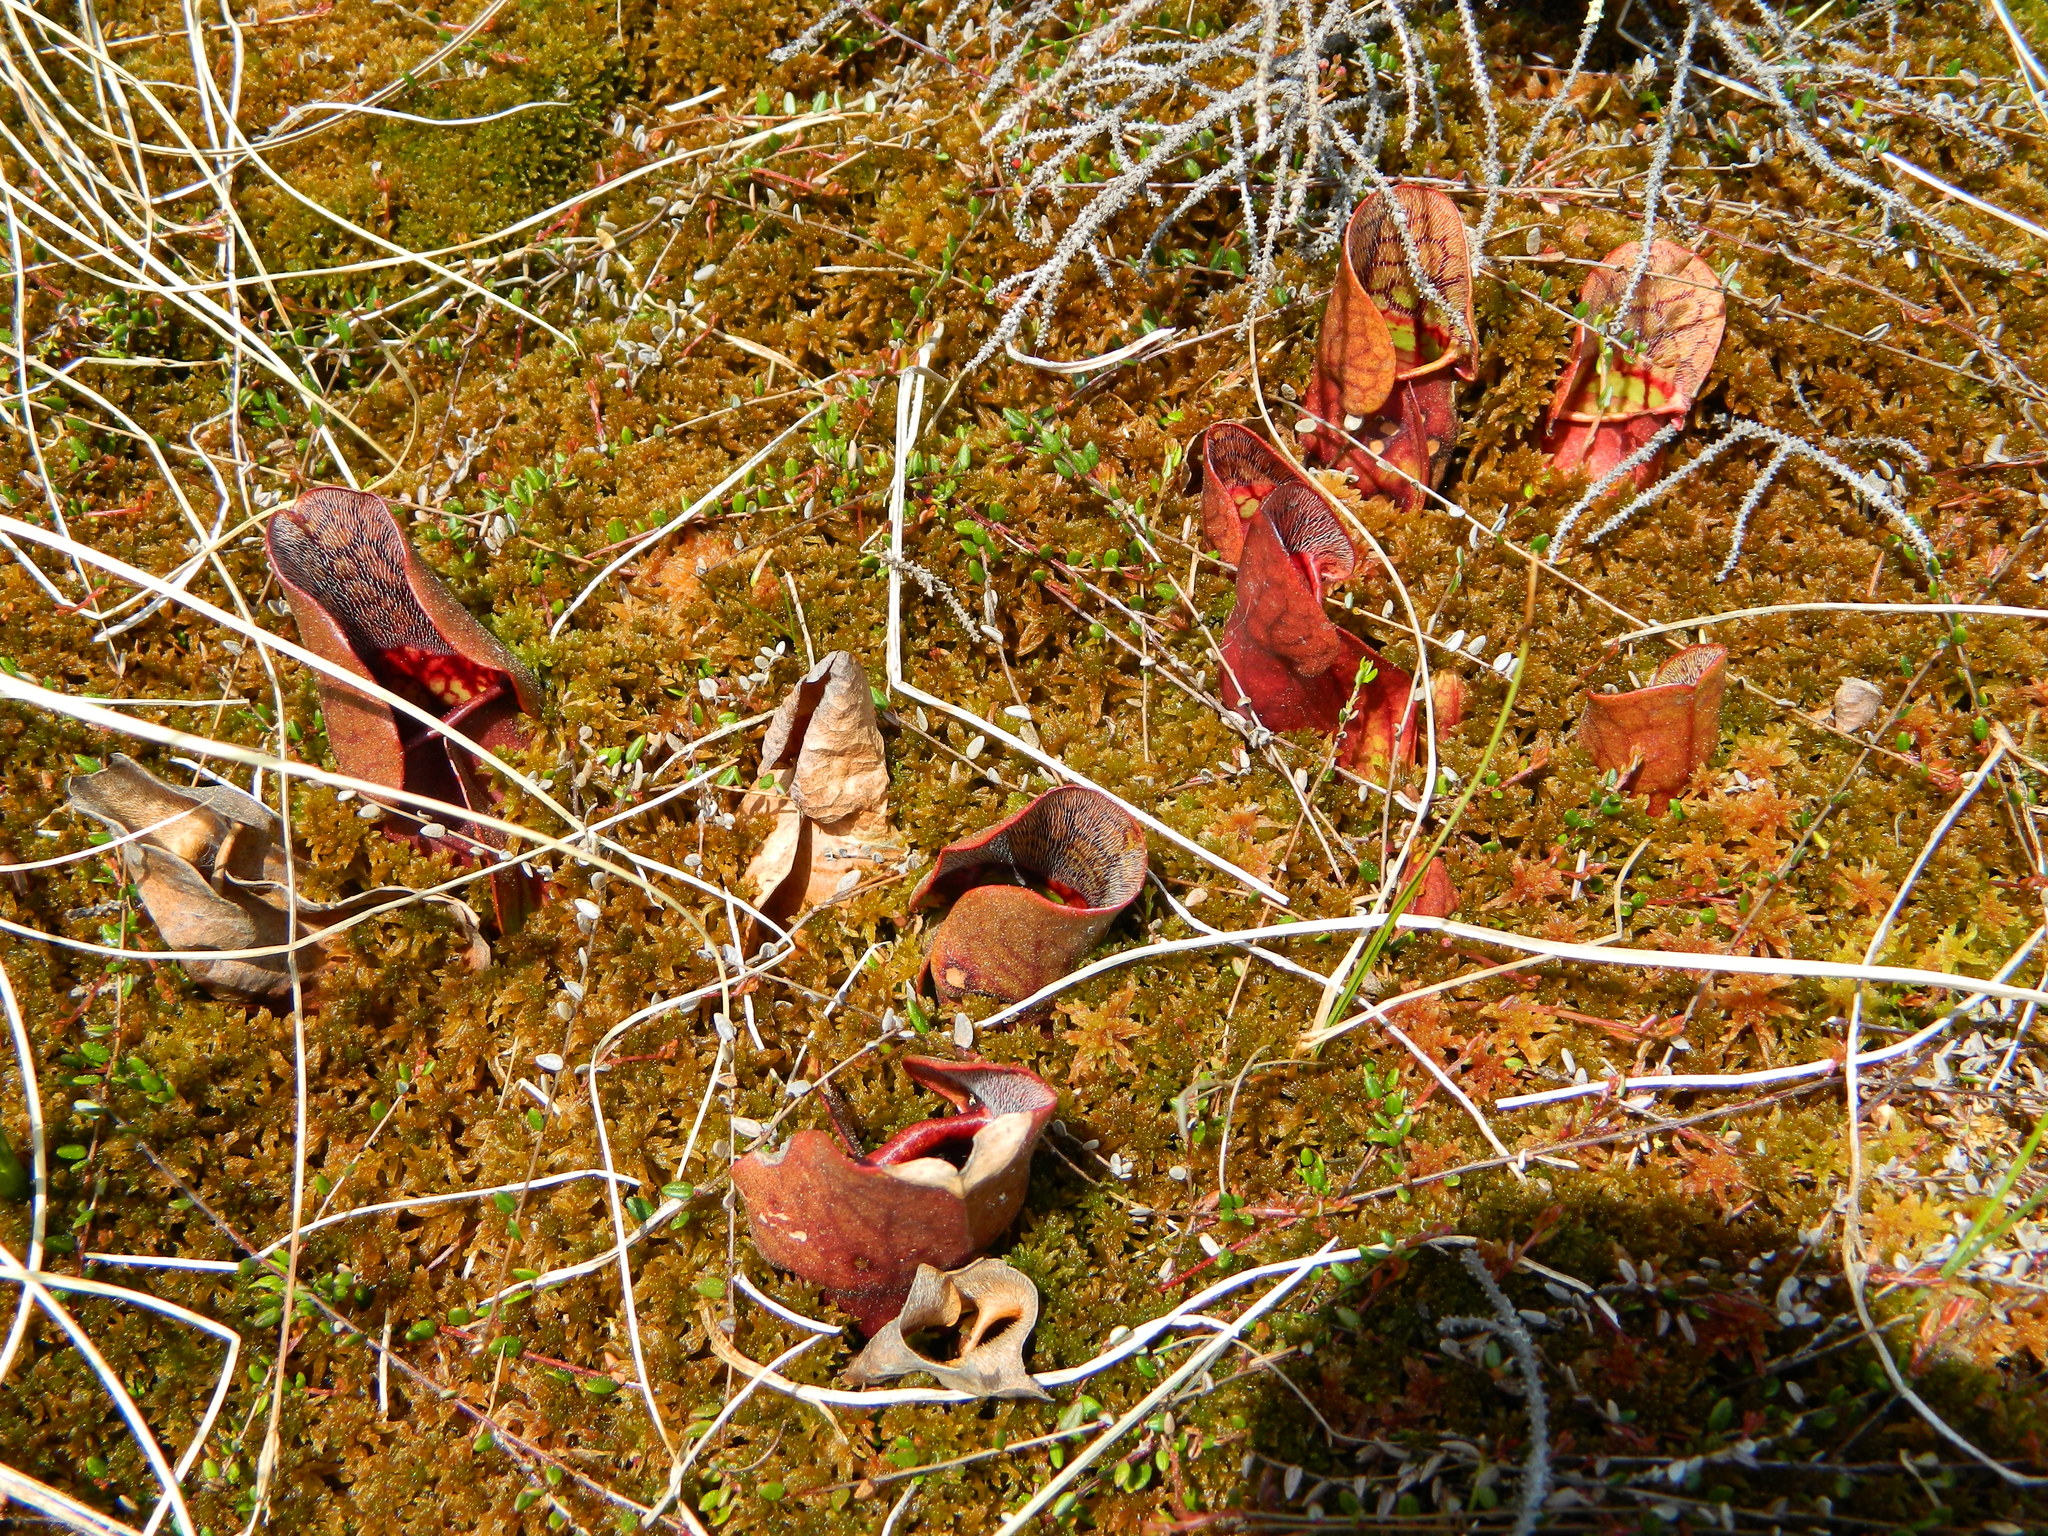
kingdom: Plantae
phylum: Tracheophyta
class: Magnoliopsida
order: Ericales
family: Sarraceniaceae
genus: Sarracenia
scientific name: Sarracenia purpurea
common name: Pitcherplant
